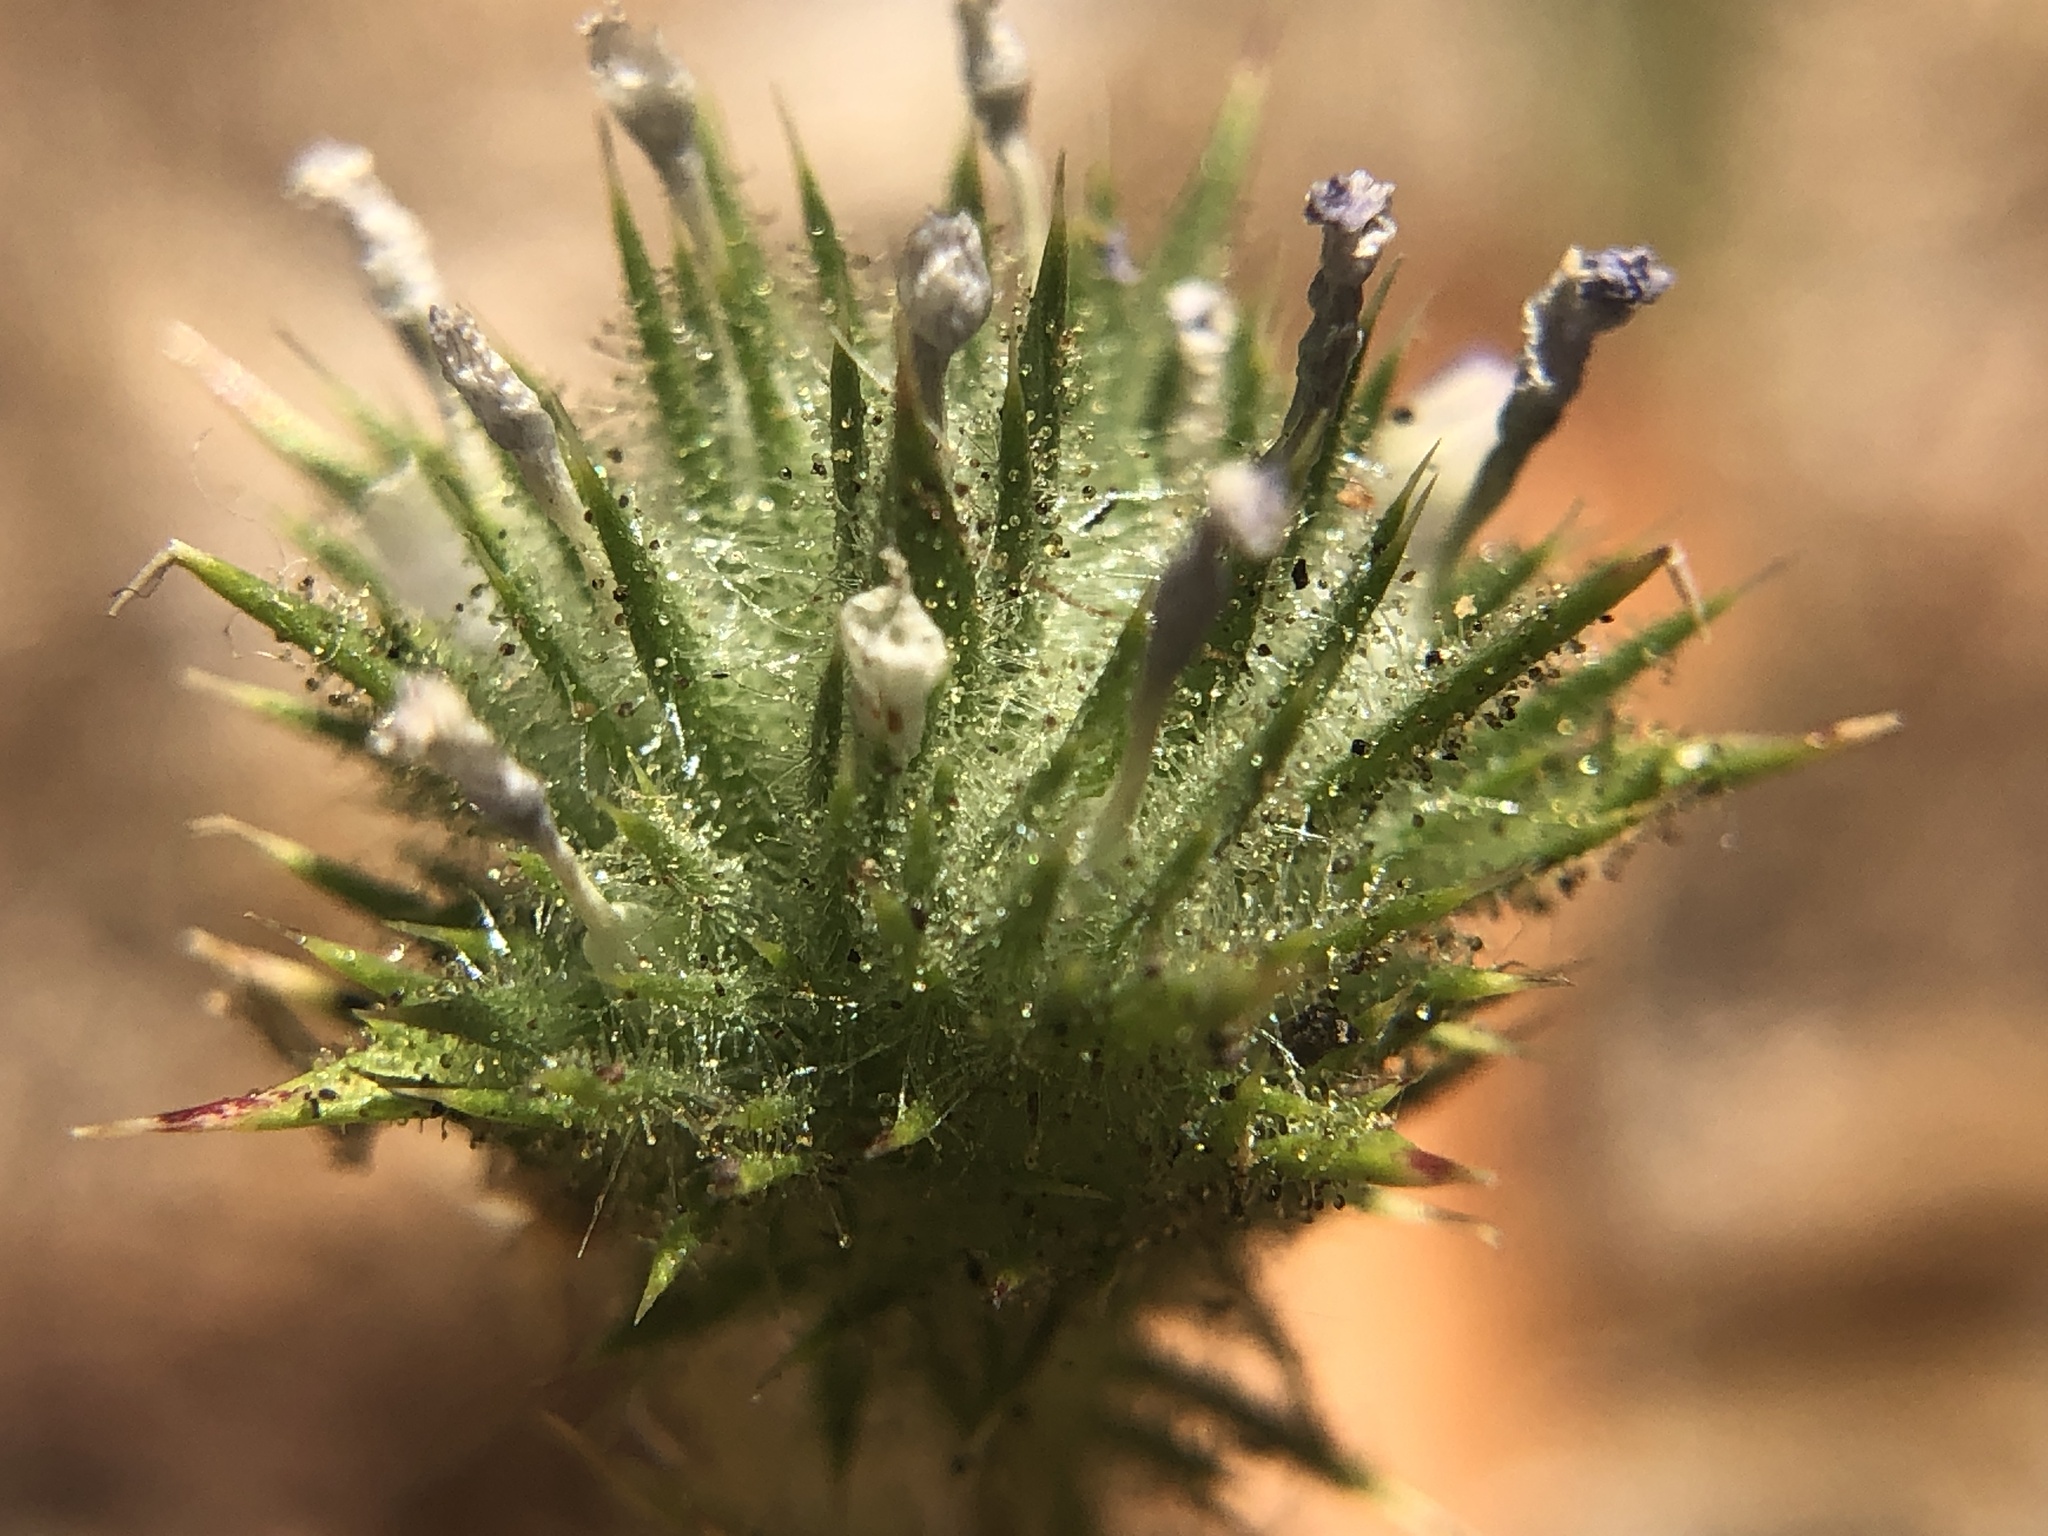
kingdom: Plantae
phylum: Tracheophyta
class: Magnoliopsida
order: Ericales
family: Polemoniaceae
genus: Navarretia
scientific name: Navarretia squarrosa
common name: Skunkweed
